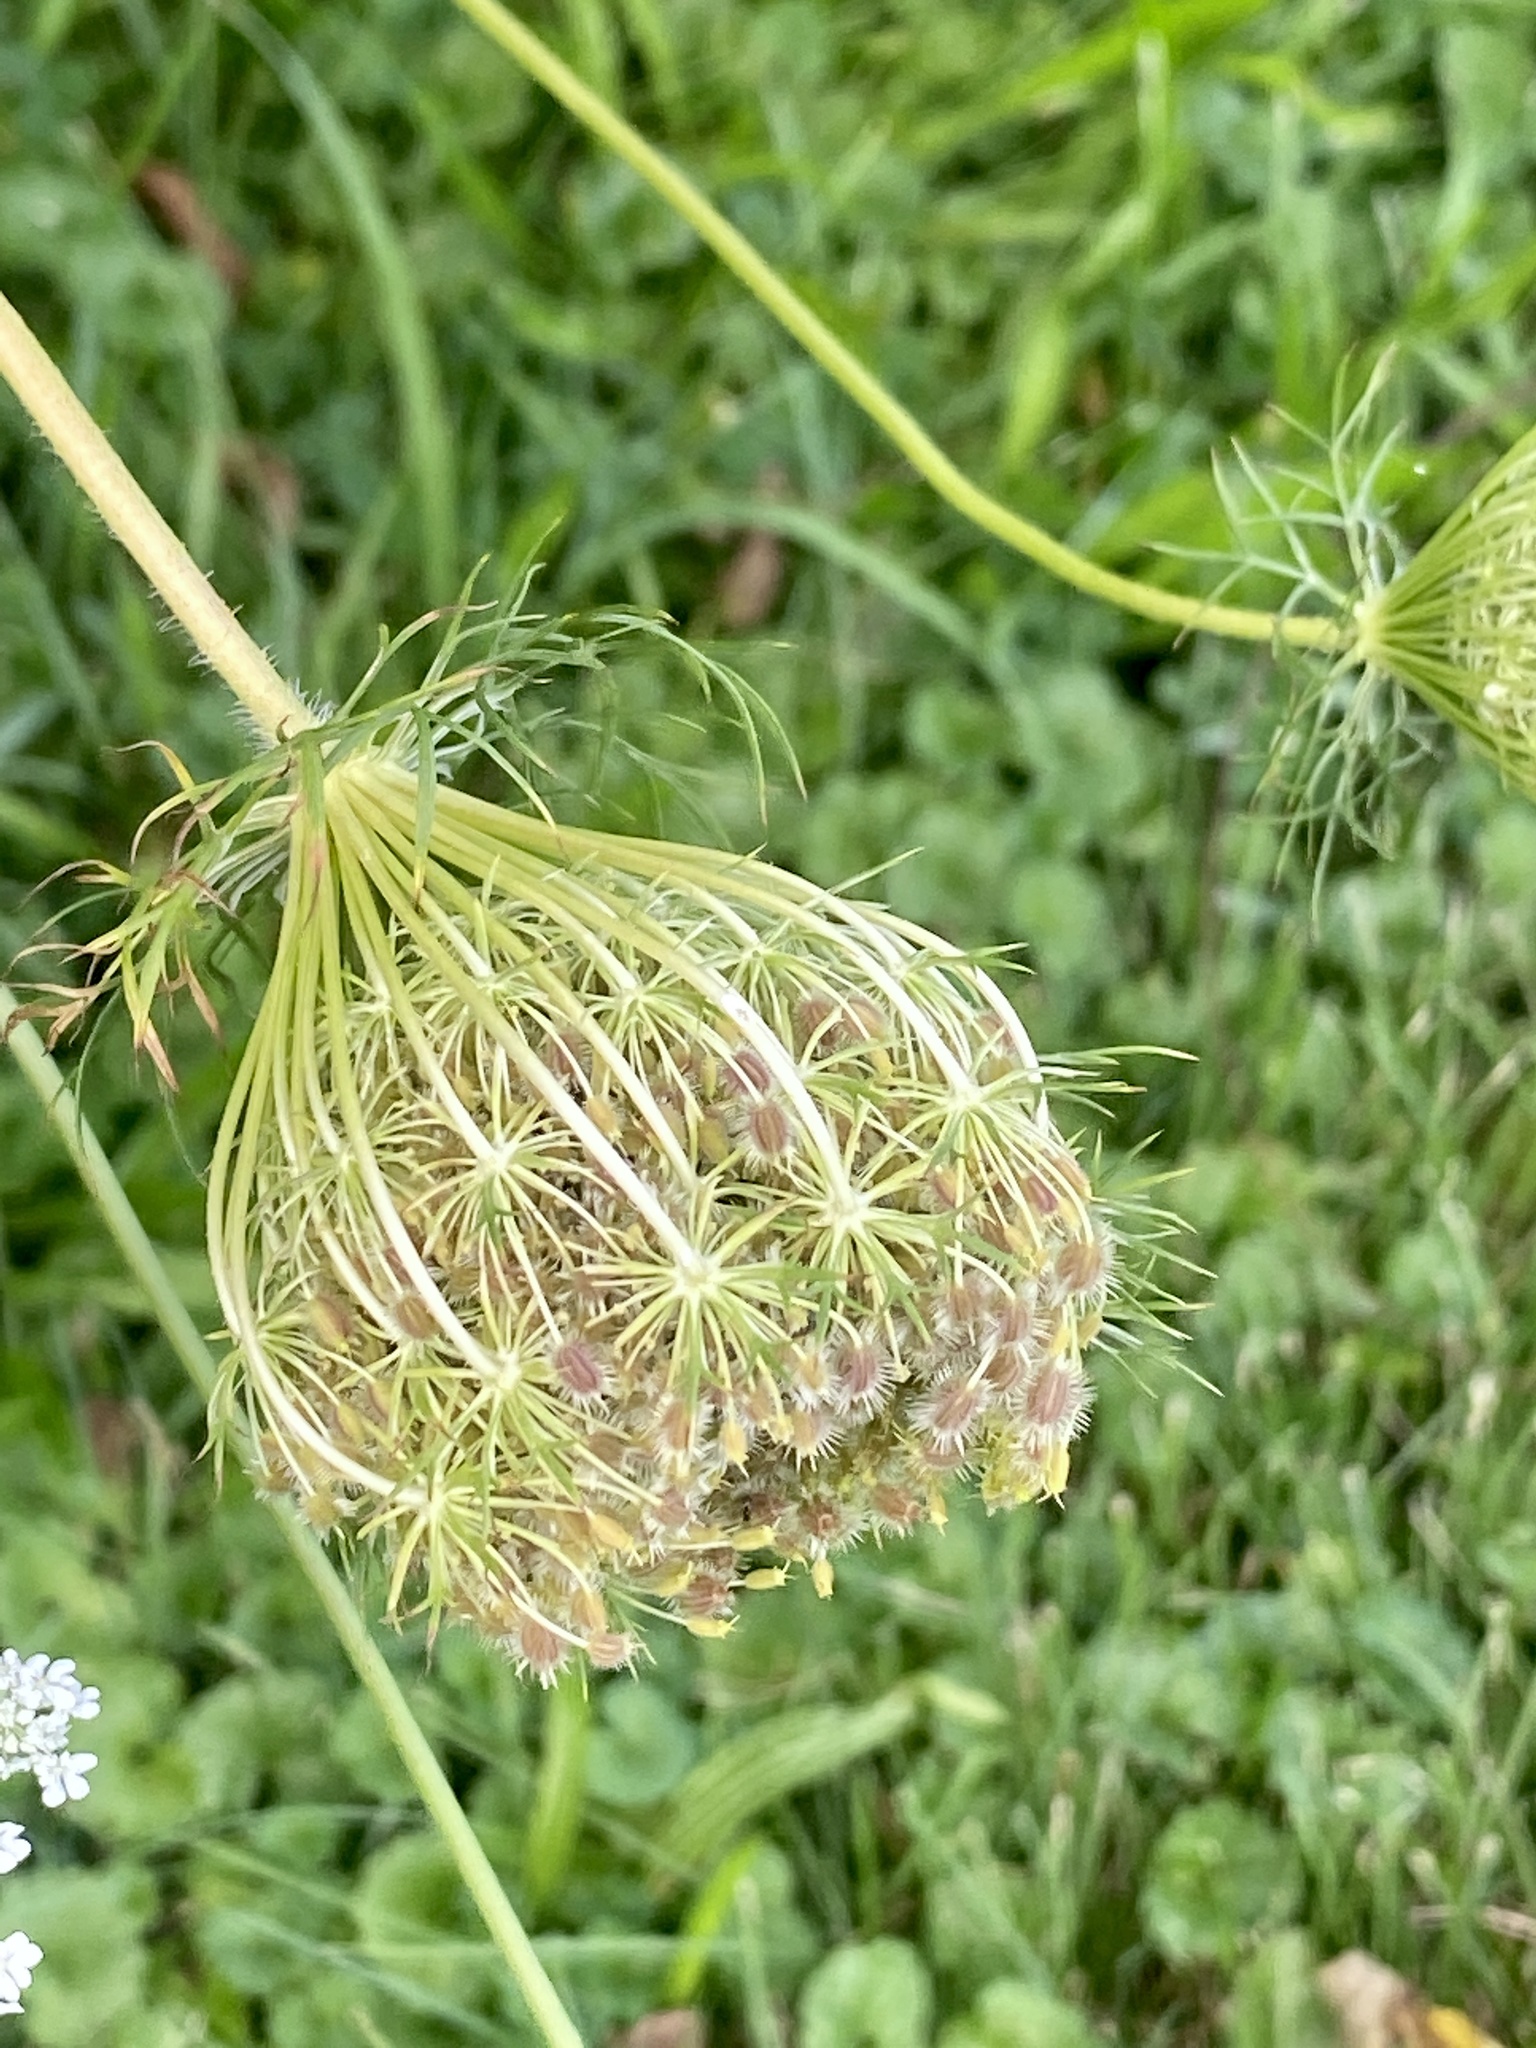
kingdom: Plantae
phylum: Tracheophyta
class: Magnoliopsida
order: Apiales
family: Apiaceae
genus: Daucus
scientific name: Daucus carota
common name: Wild carrot
